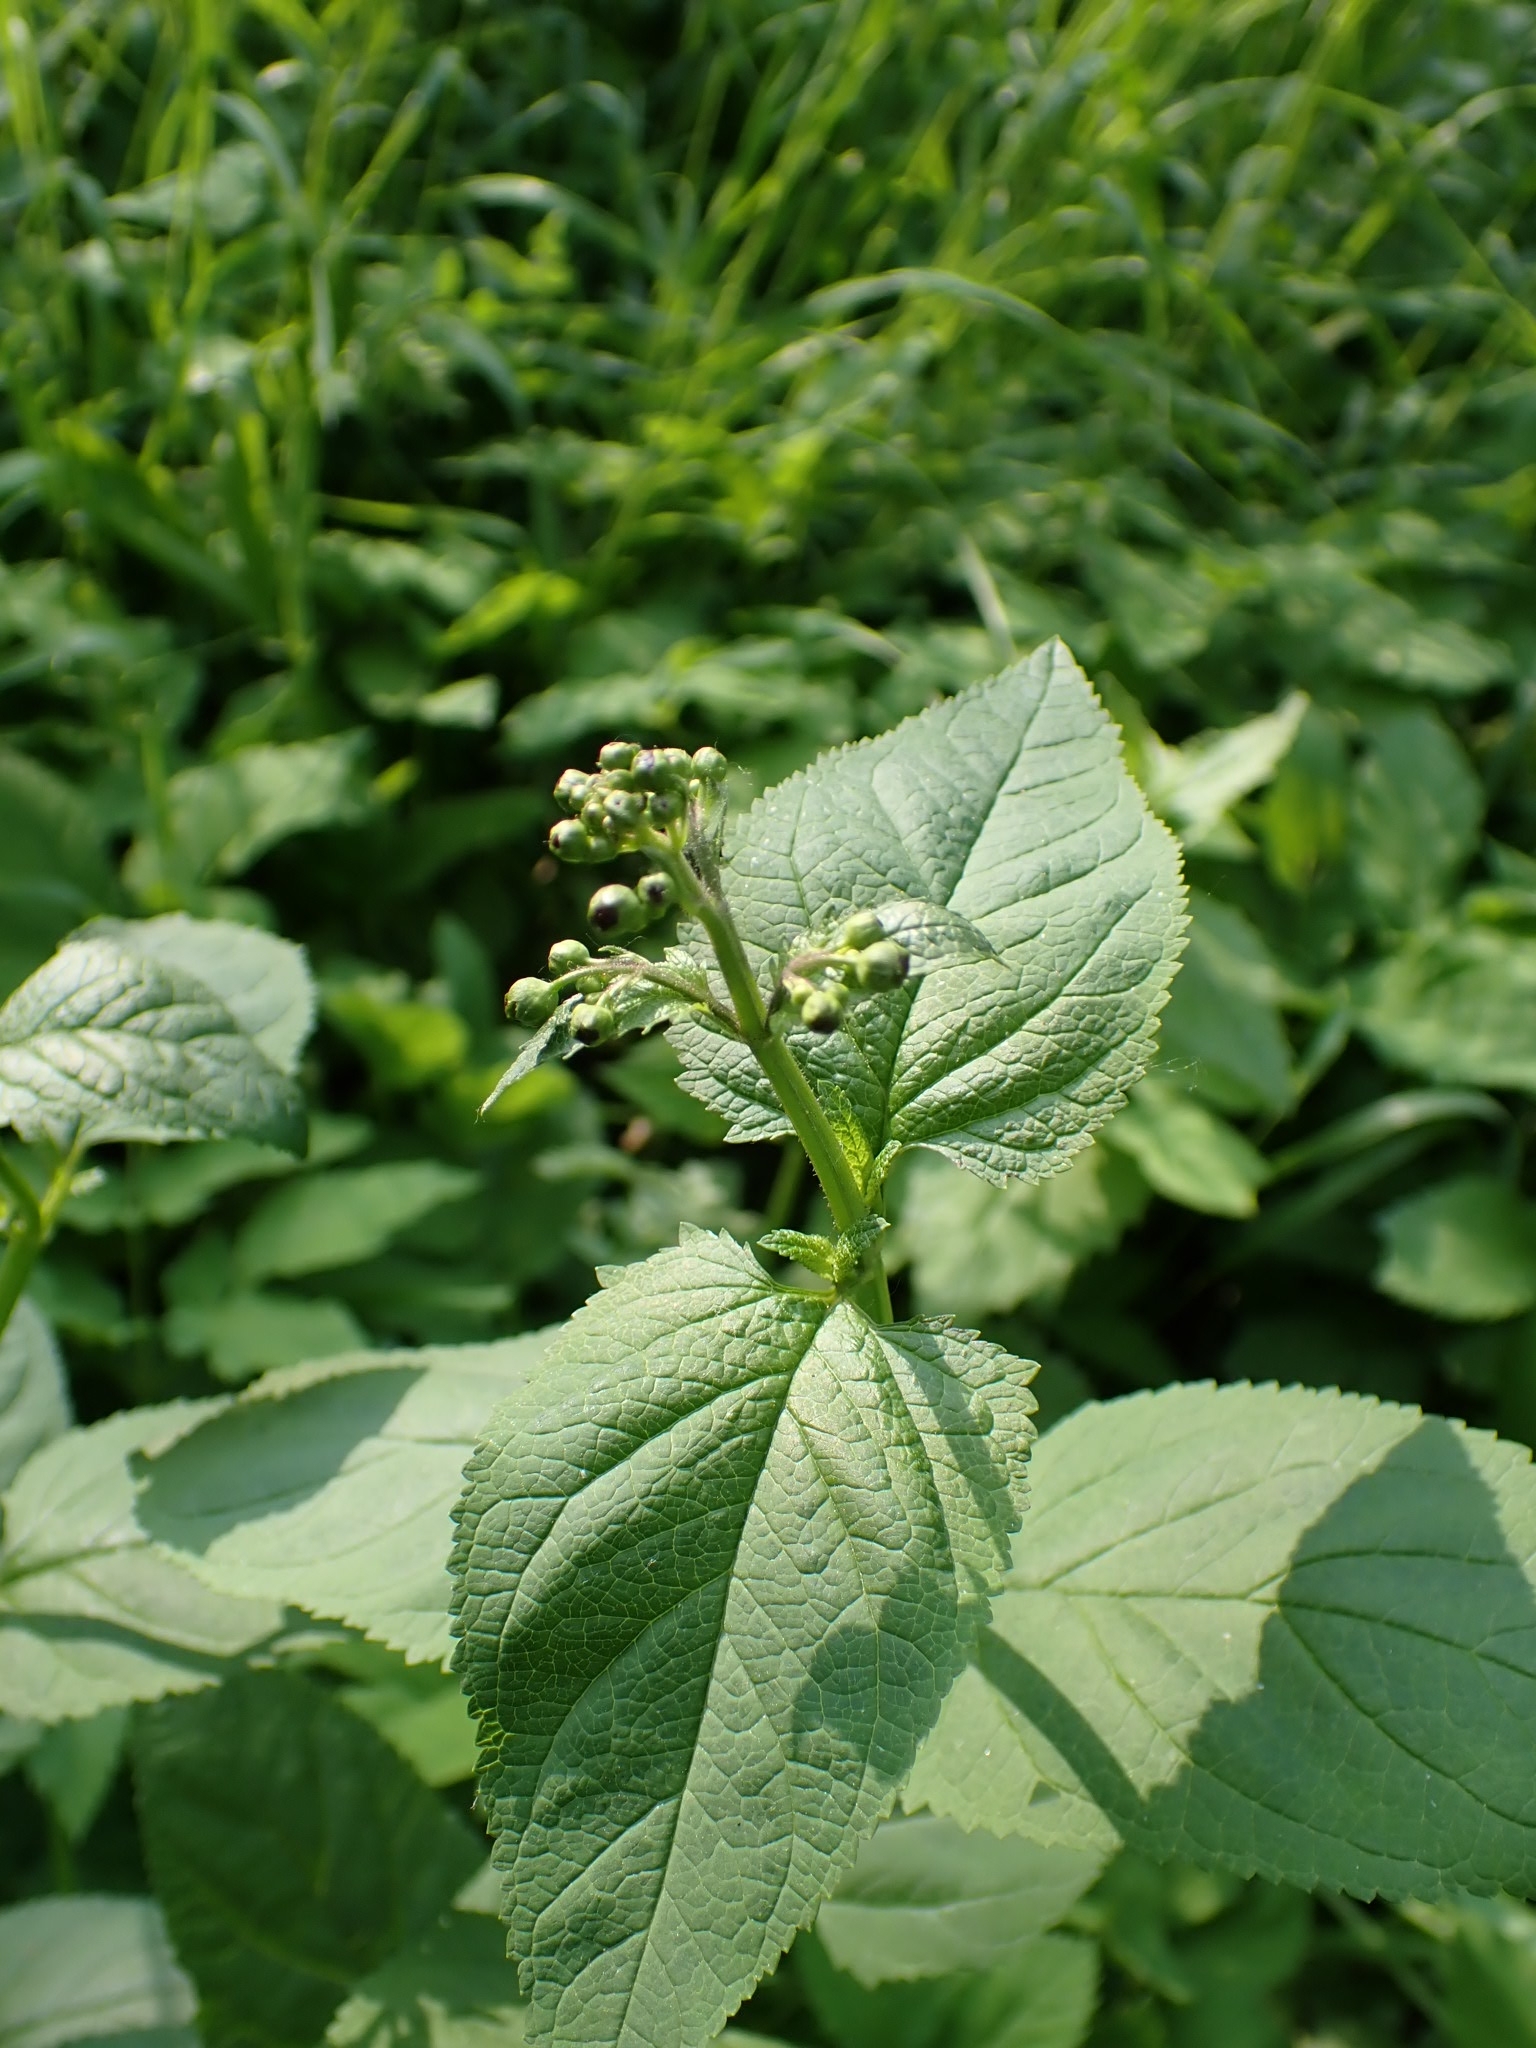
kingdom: Plantae
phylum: Tracheophyta
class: Magnoliopsida
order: Lamiales
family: Scrophulariaceae
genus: Scrophularia
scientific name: Scrophularia nodosa
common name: Common figwort
